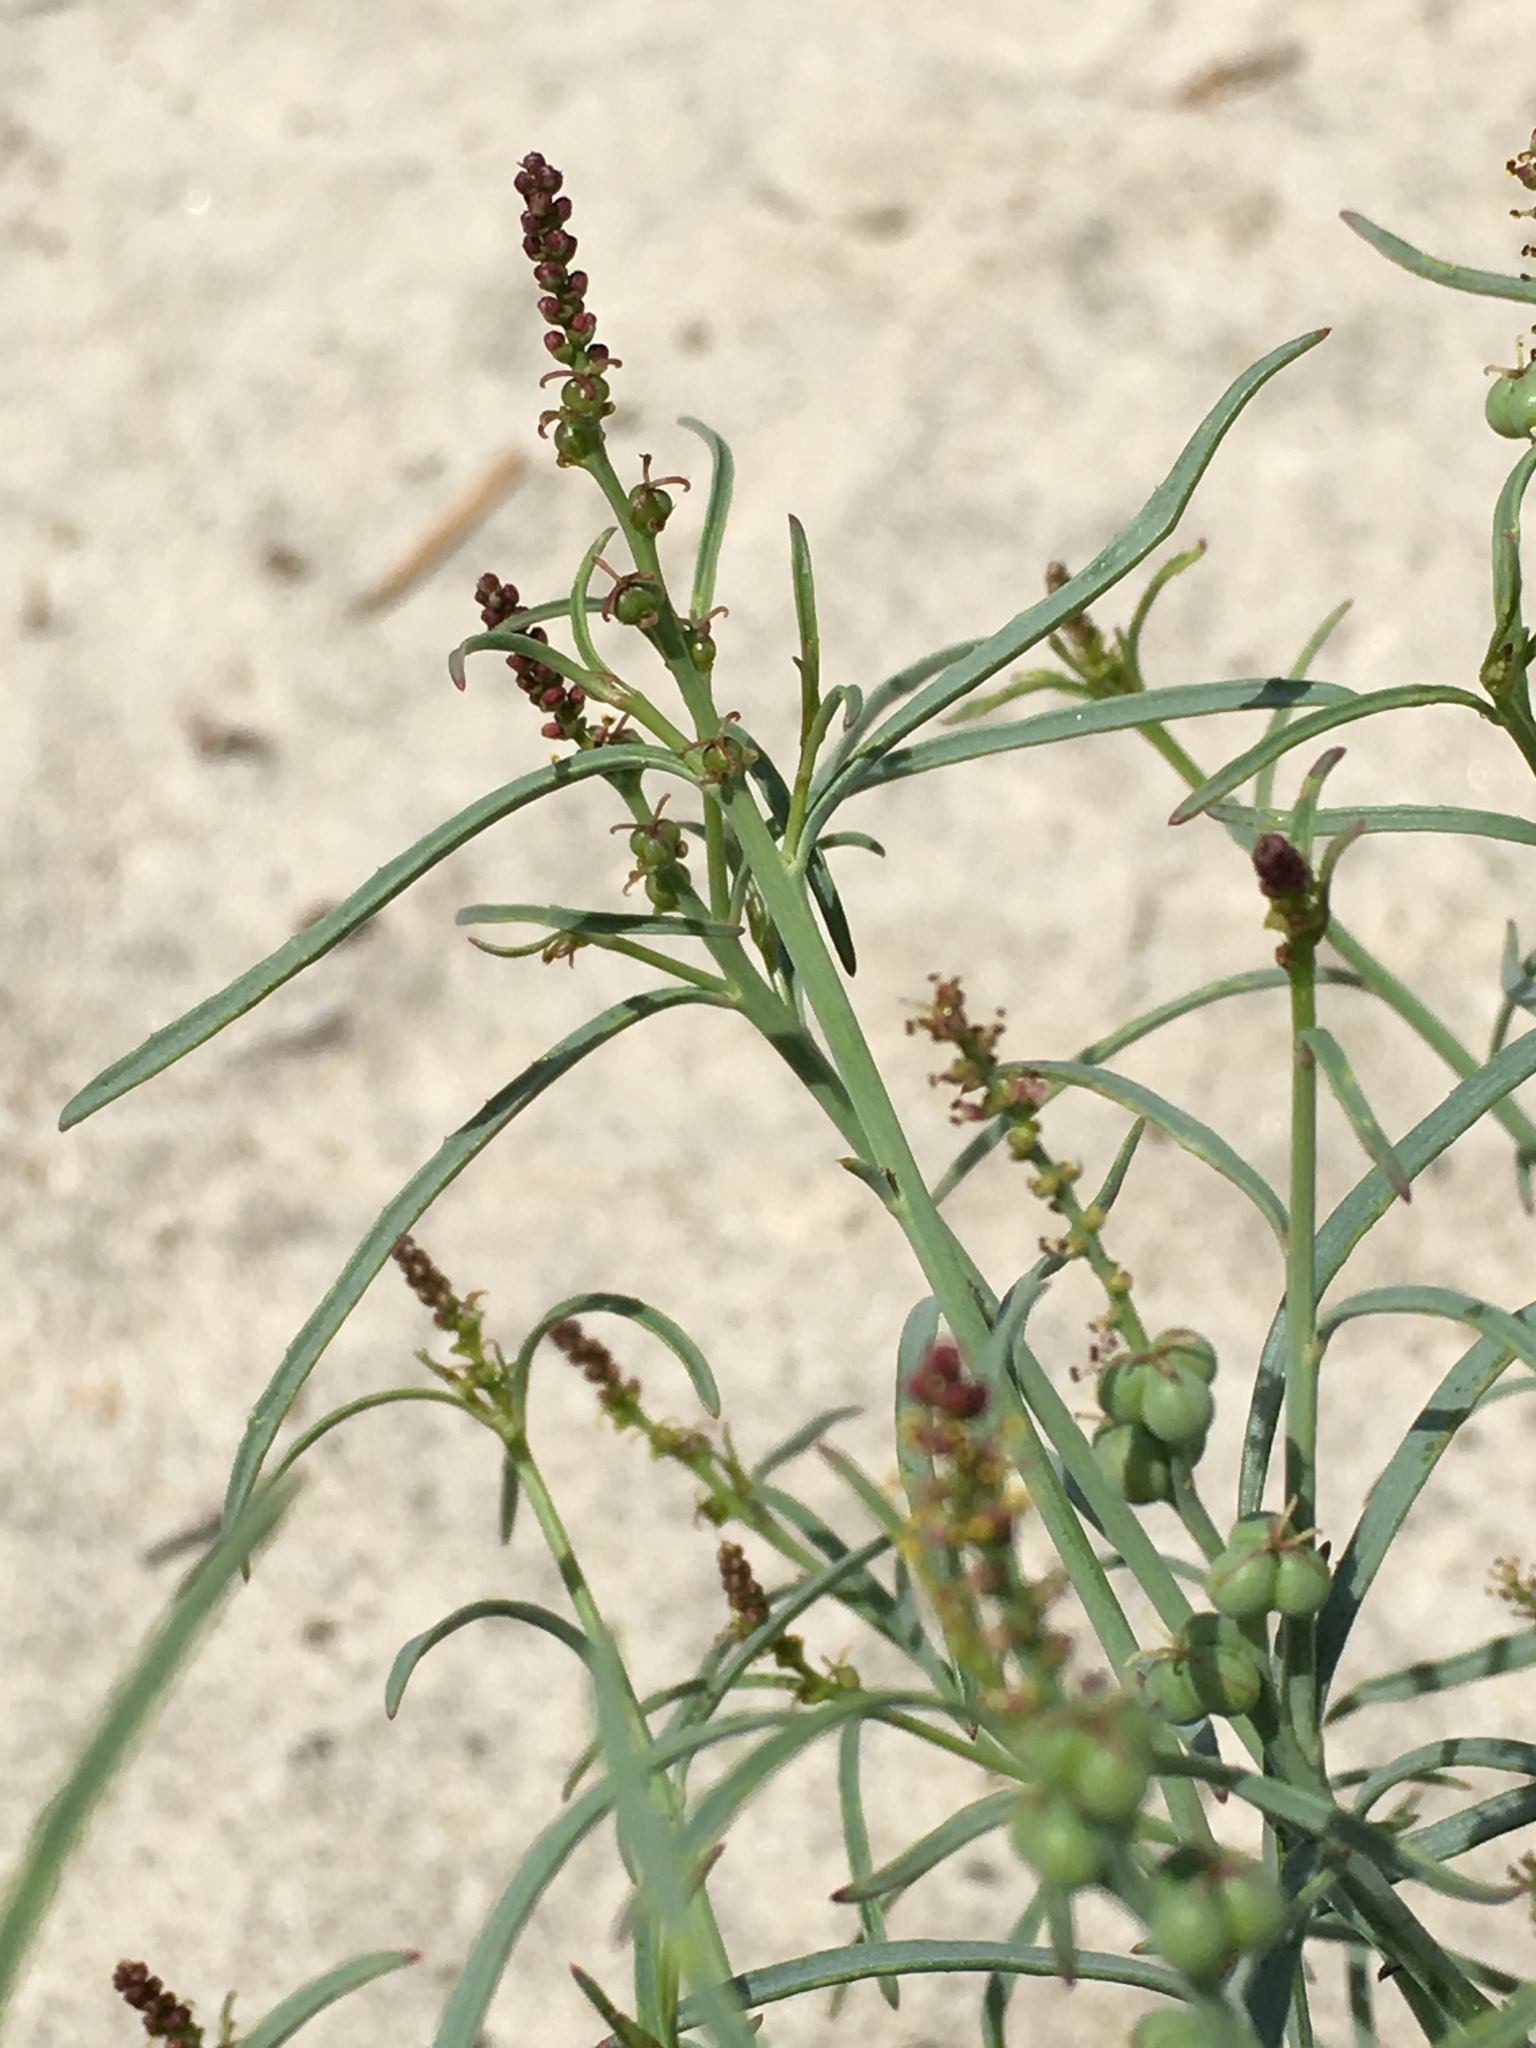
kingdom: Plantae
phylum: Tracheophyta
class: Magnoliopsida
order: Malpighiales
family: Euphorbiaceae
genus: Stillingia
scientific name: Stillingia linearifolia
